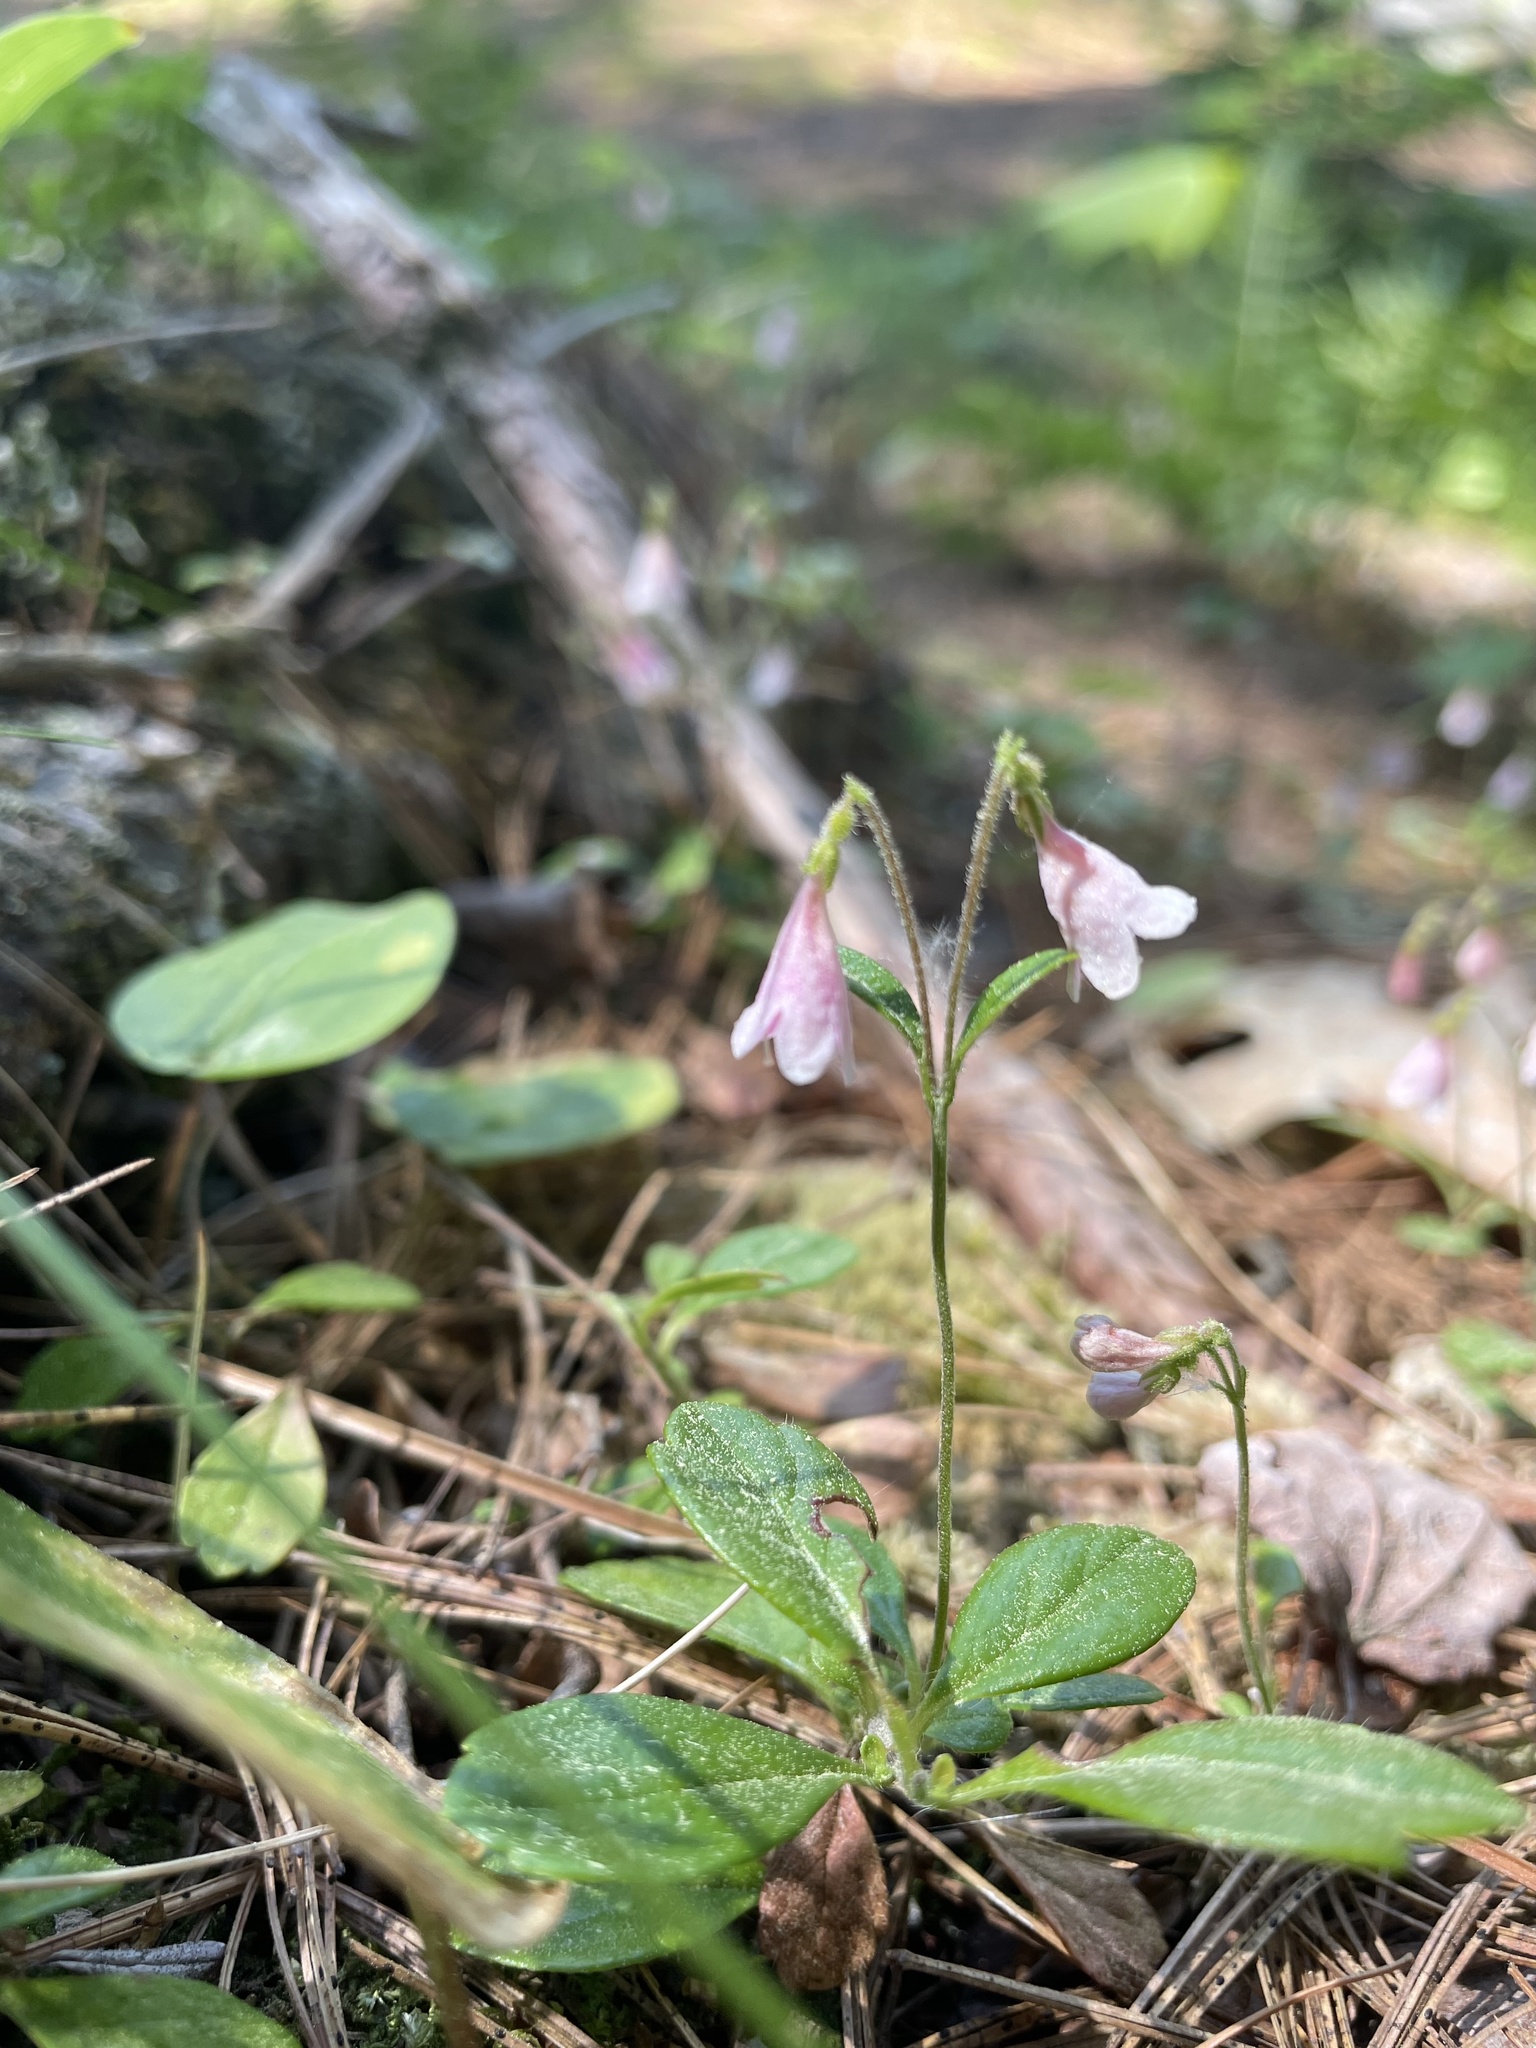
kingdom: Plantae
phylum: Tracheophyta
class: Magnoliopsida
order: Dipsacales
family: Caprifoliaceae
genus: Linnaea
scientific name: Linnaea borealis
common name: Twinflower
